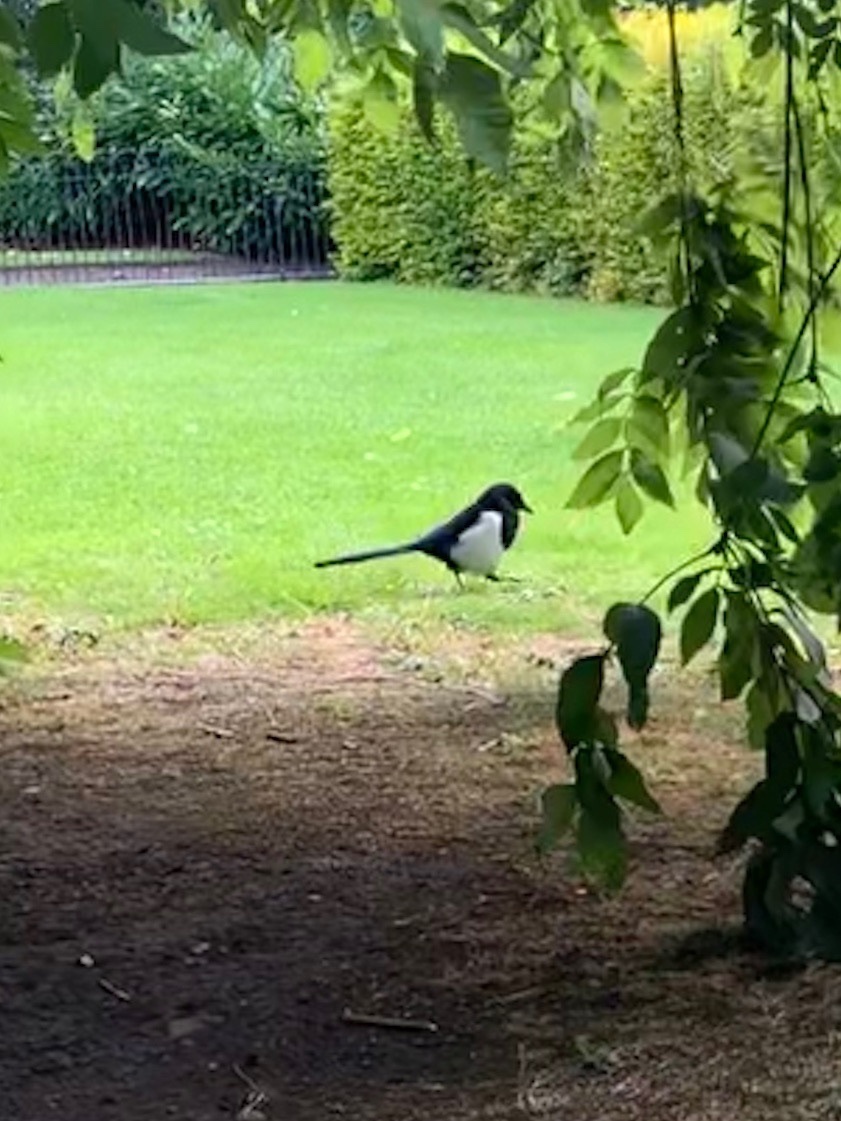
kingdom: Animalia
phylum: Chordata
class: Aves
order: Passeriformes
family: Corvidae
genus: Pica
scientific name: Pica pica
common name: Eurasian magpie
